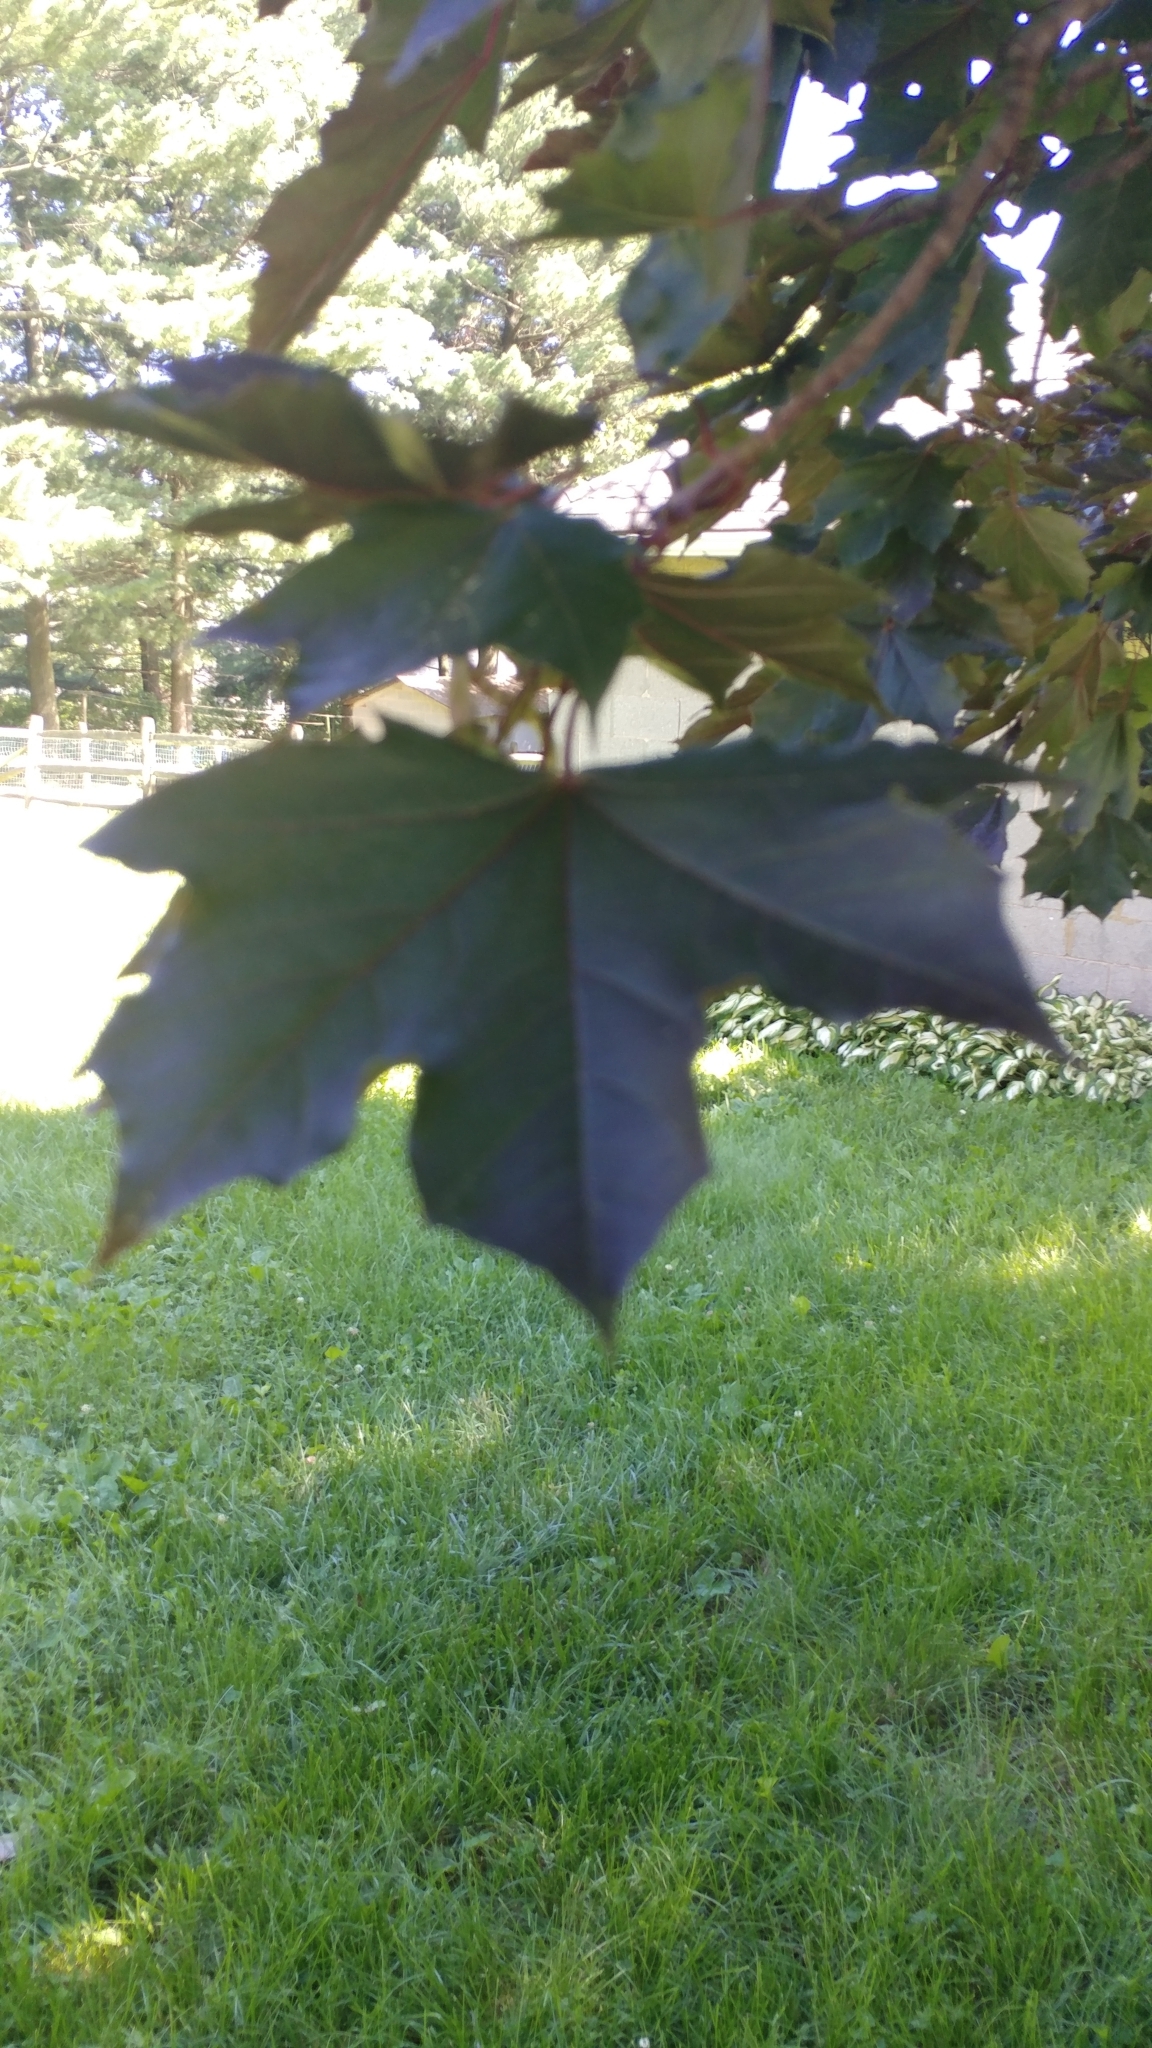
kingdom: Plantae
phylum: Tracheophyta
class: Magnoliopsida
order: Sapindales
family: Sapindaceae
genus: Acer
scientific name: Acer platanoides
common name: Norway maple
